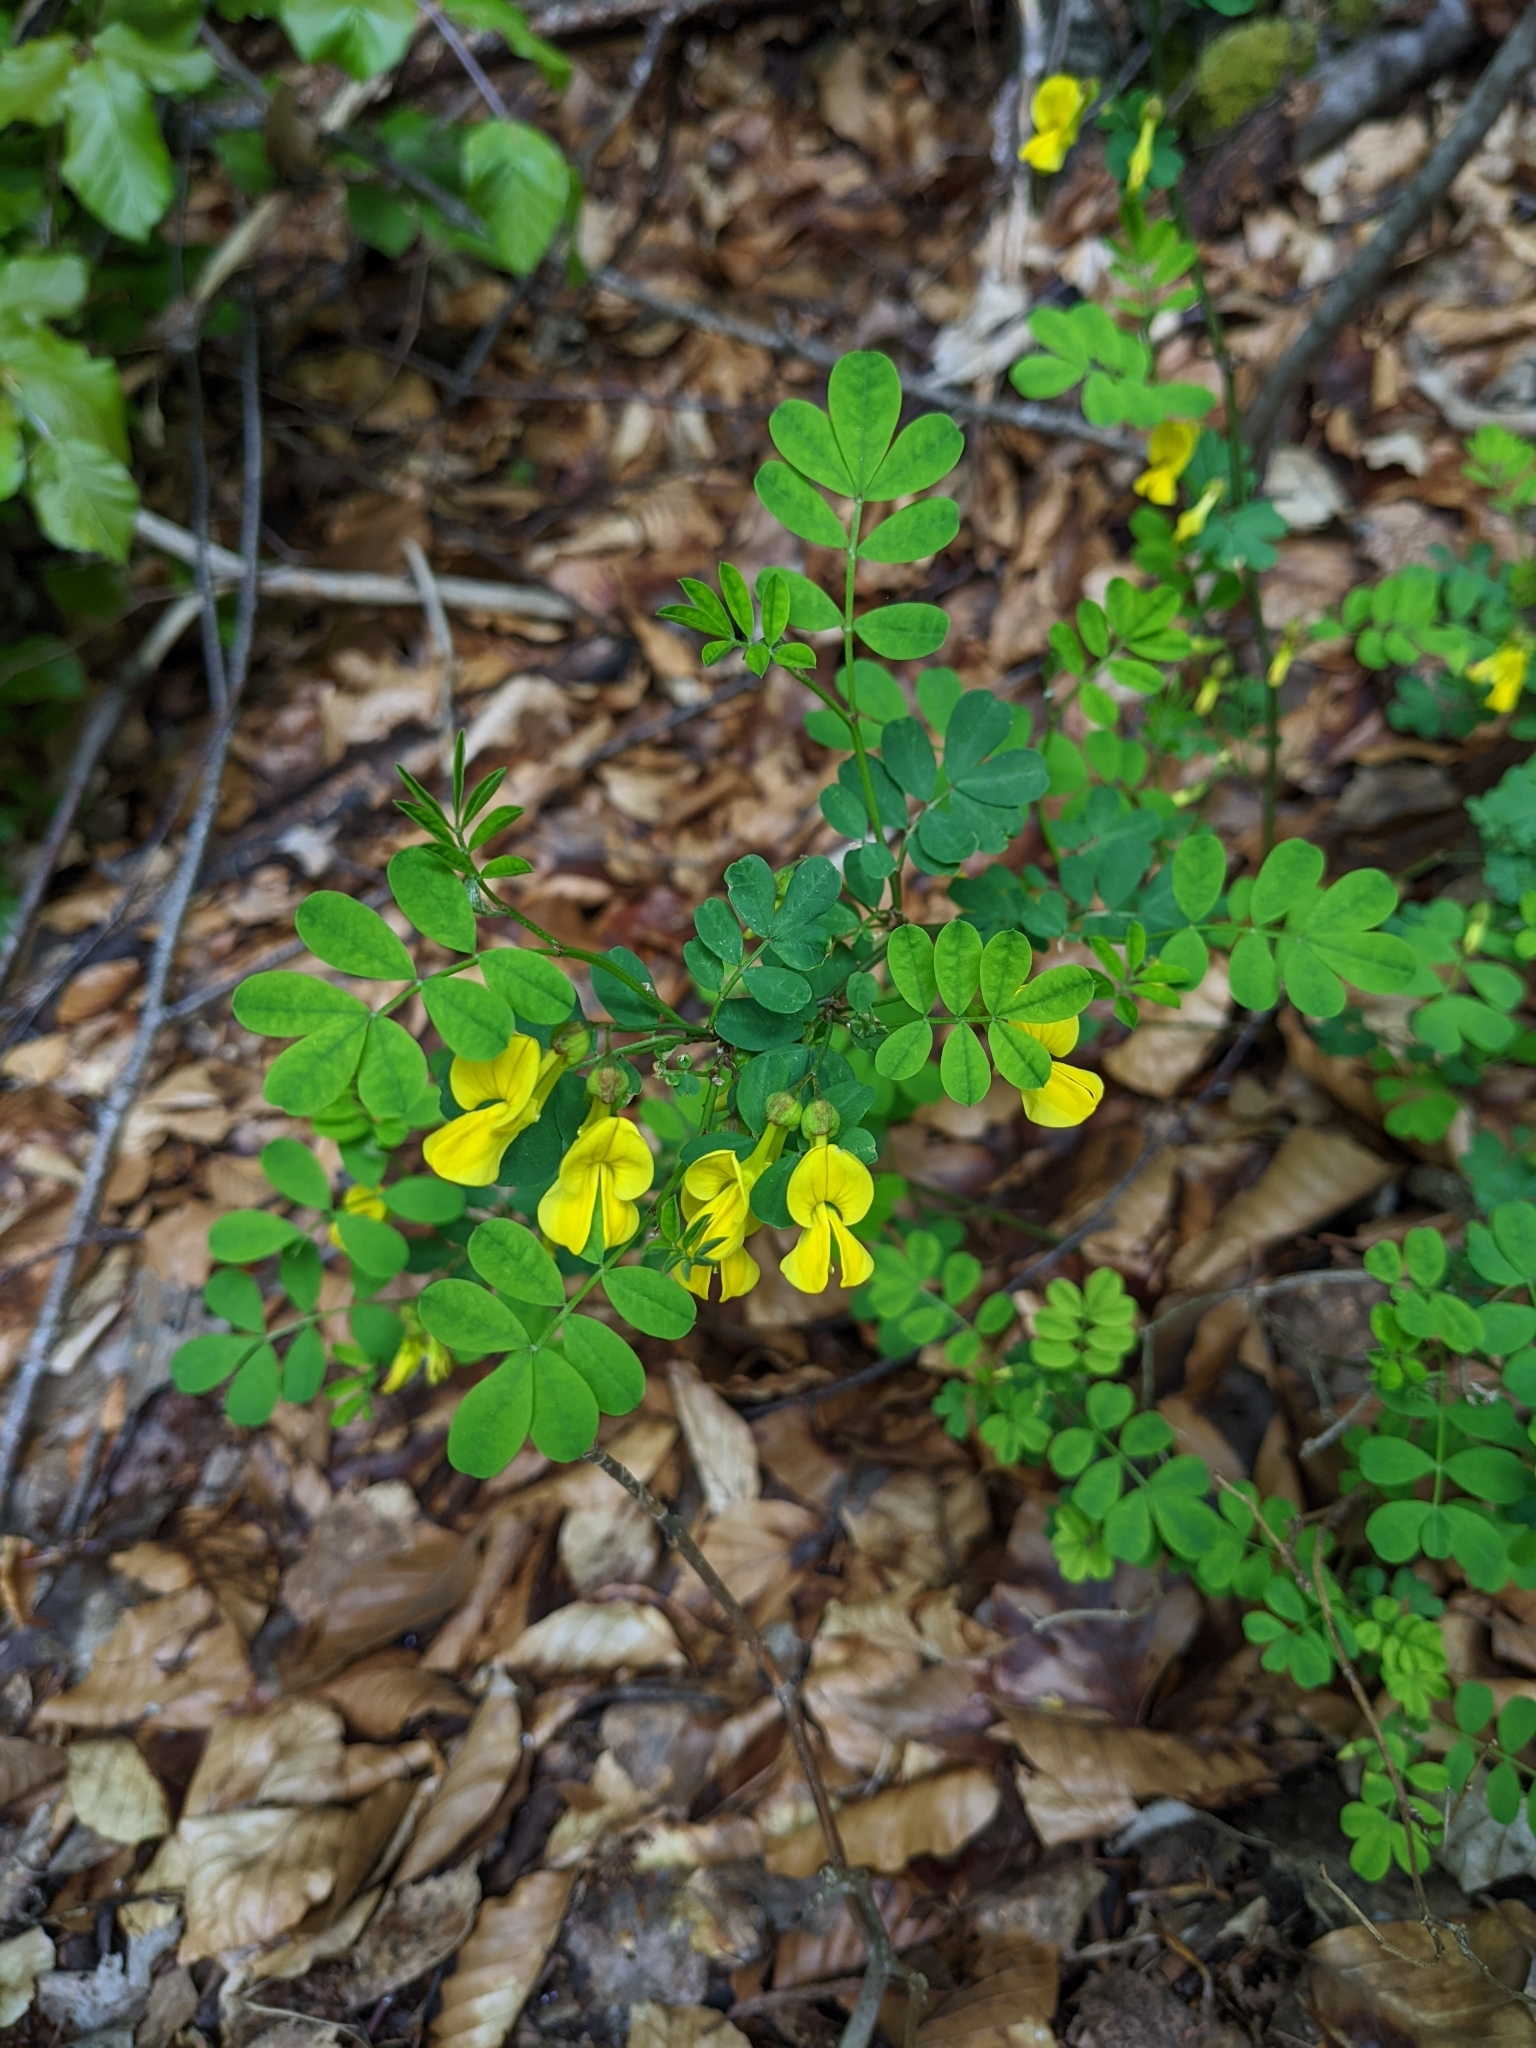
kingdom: Plantae
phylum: Tracheophyta
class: Magnoliopsida
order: Fabales
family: Fabaceae
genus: Hippocrepis
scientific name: Hippocrepis emerus
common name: Scorpion senna
